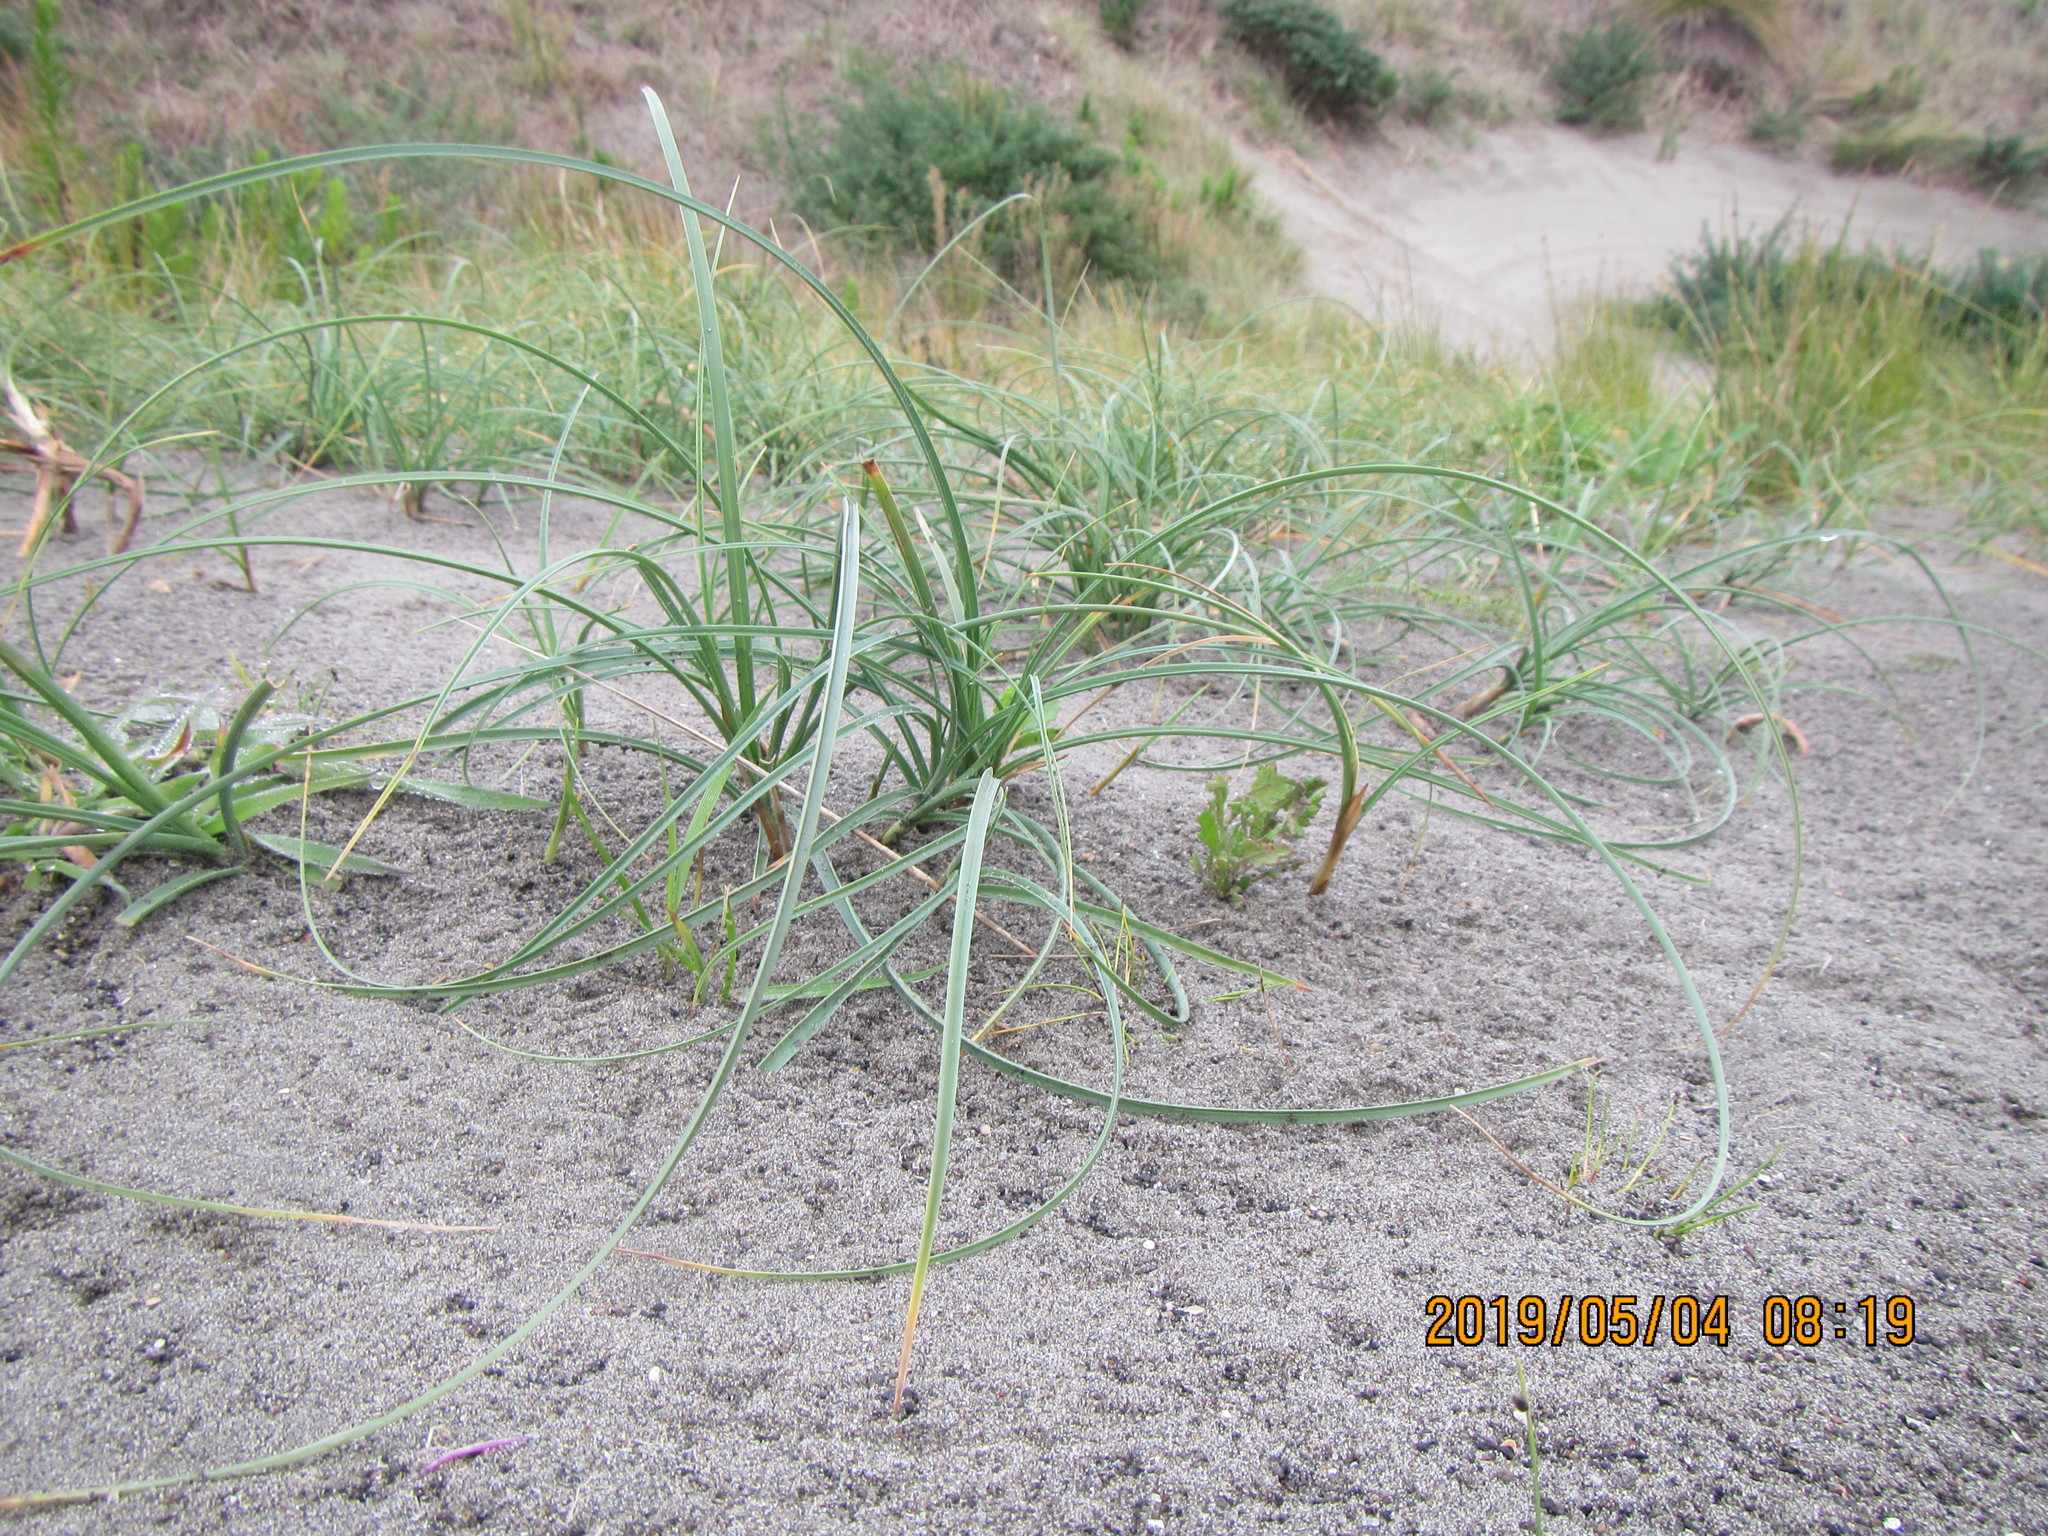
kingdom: Plantae
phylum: Tracheophyta
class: Liliopsida
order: Poales
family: Cyperaceae
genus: Carex
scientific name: Carex pumila
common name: Dwarf sedge
